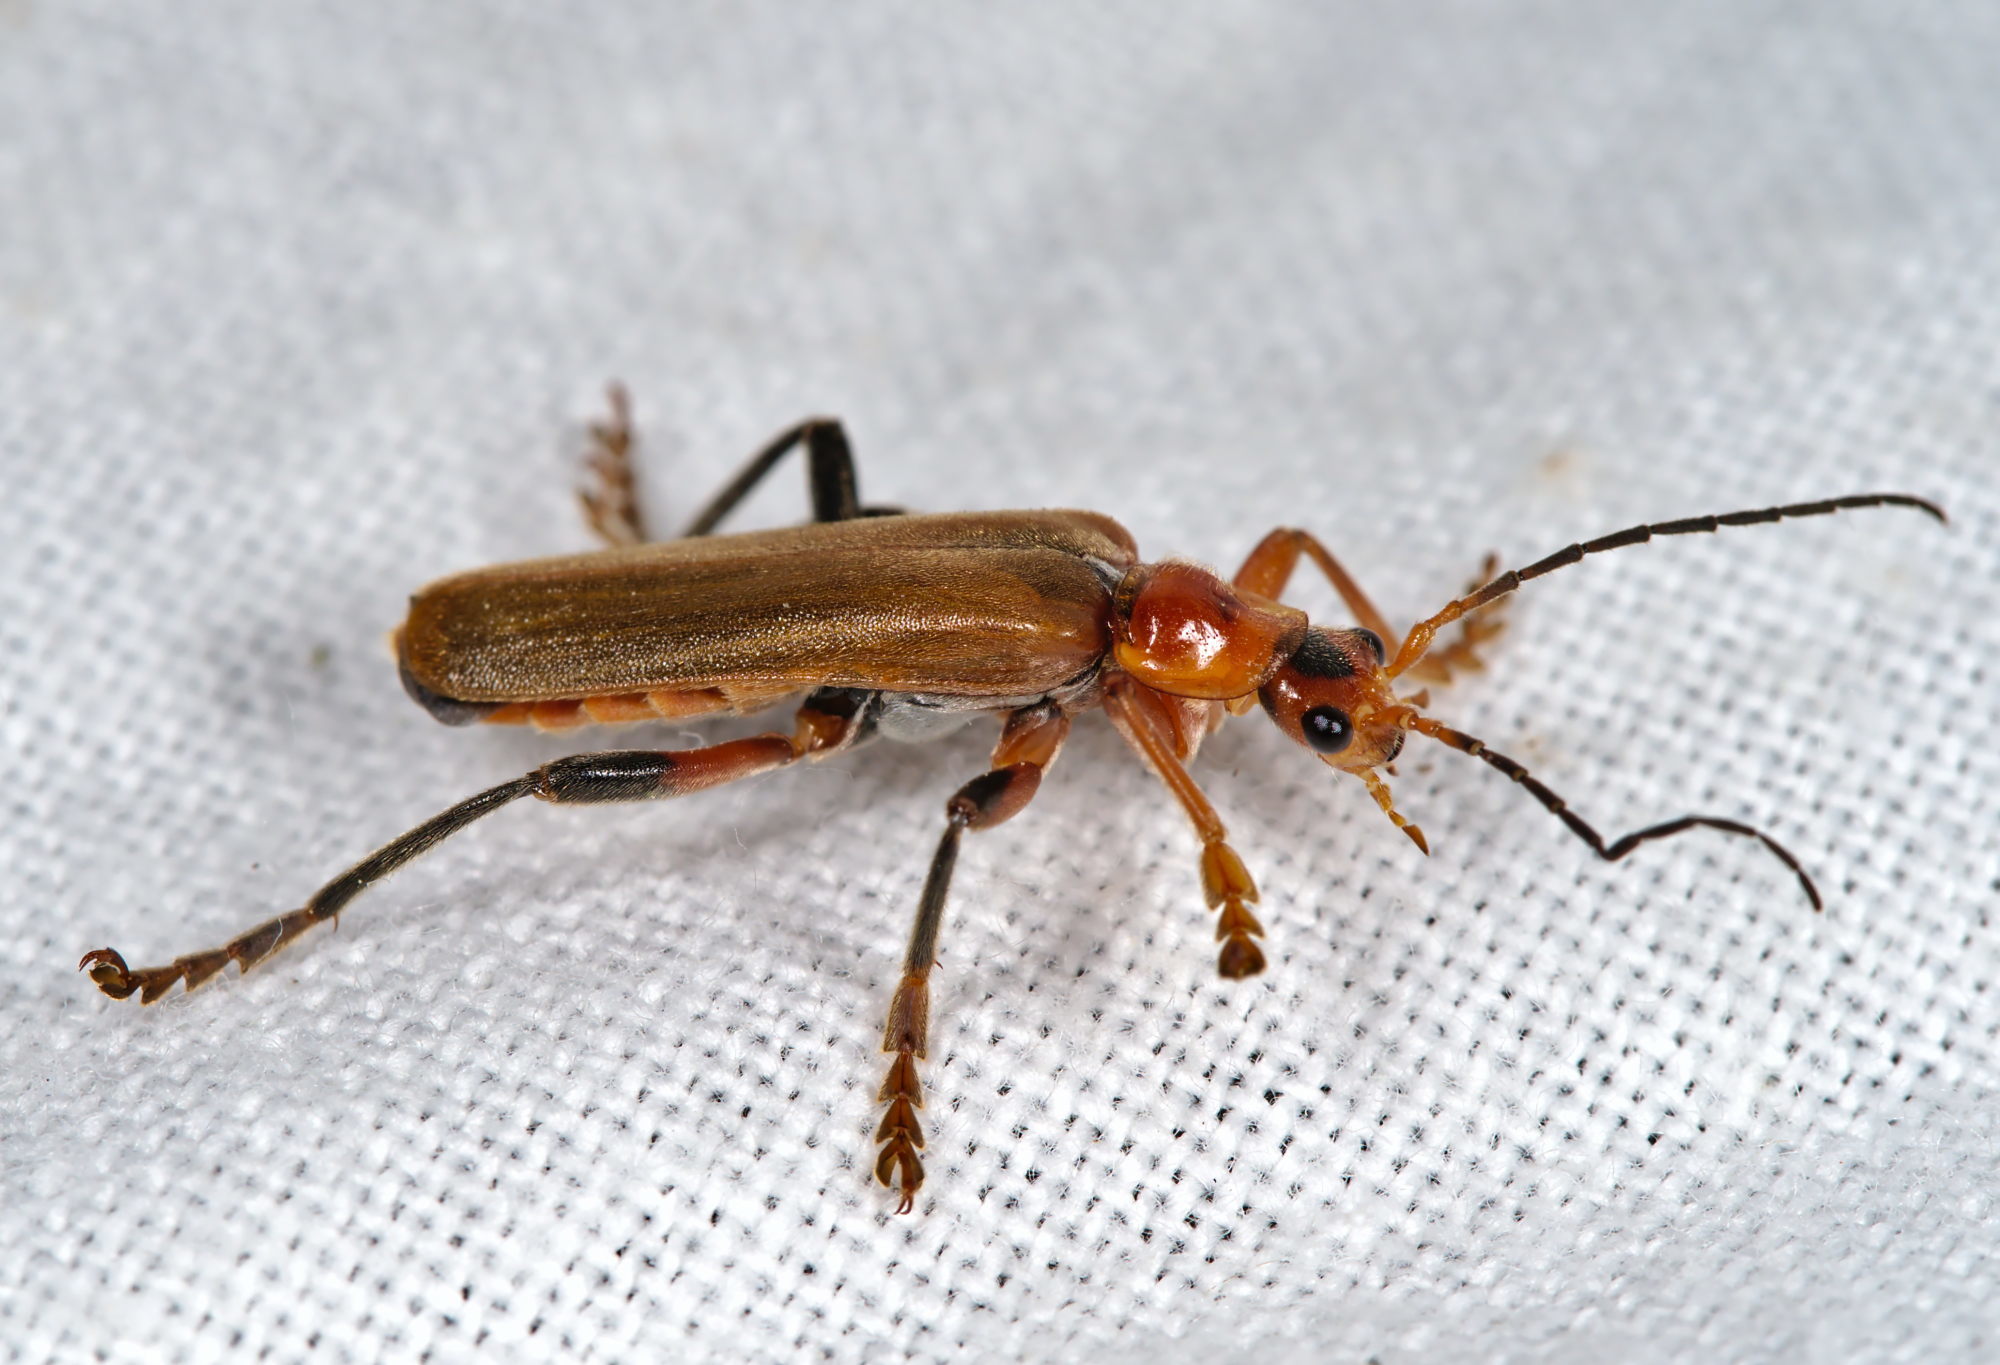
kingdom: Animalia
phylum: Arthropoda
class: Insecta
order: Coleoptera
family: Cantharidae
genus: Cantharis
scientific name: Cantharis livida
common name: Livid soldier beetle
